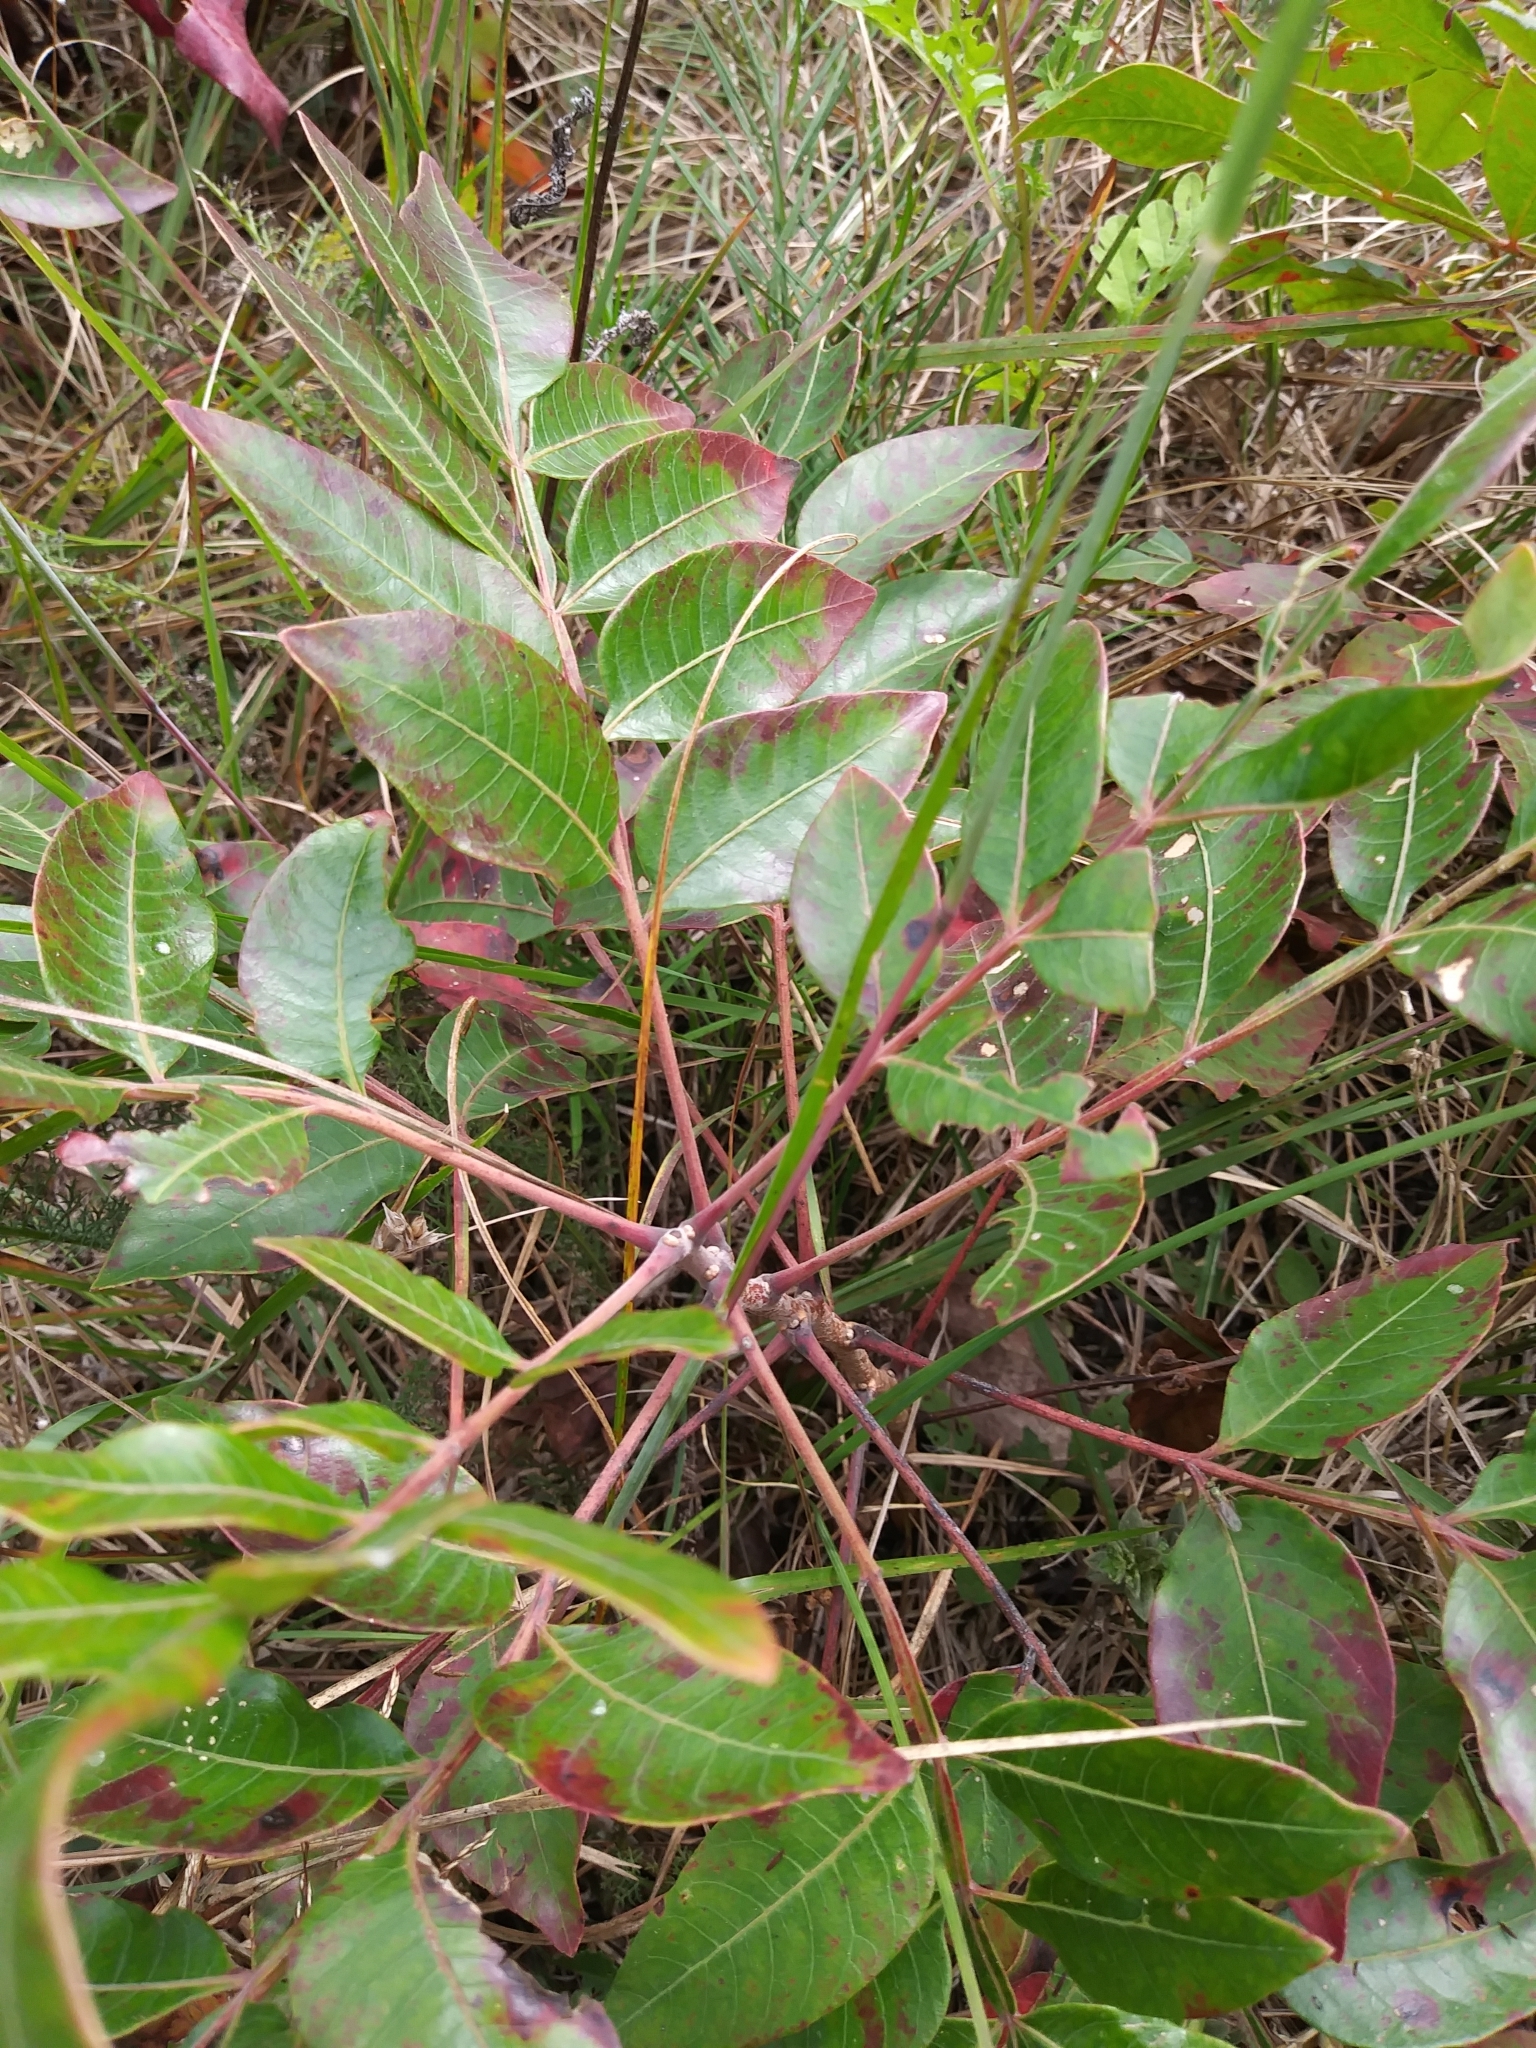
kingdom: Plantae
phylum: Tracheophyta
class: Magnoliopsida
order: Sapindales
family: Anacardiaceae
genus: Rhus
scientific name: Rhus copallina
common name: Shining sumac
